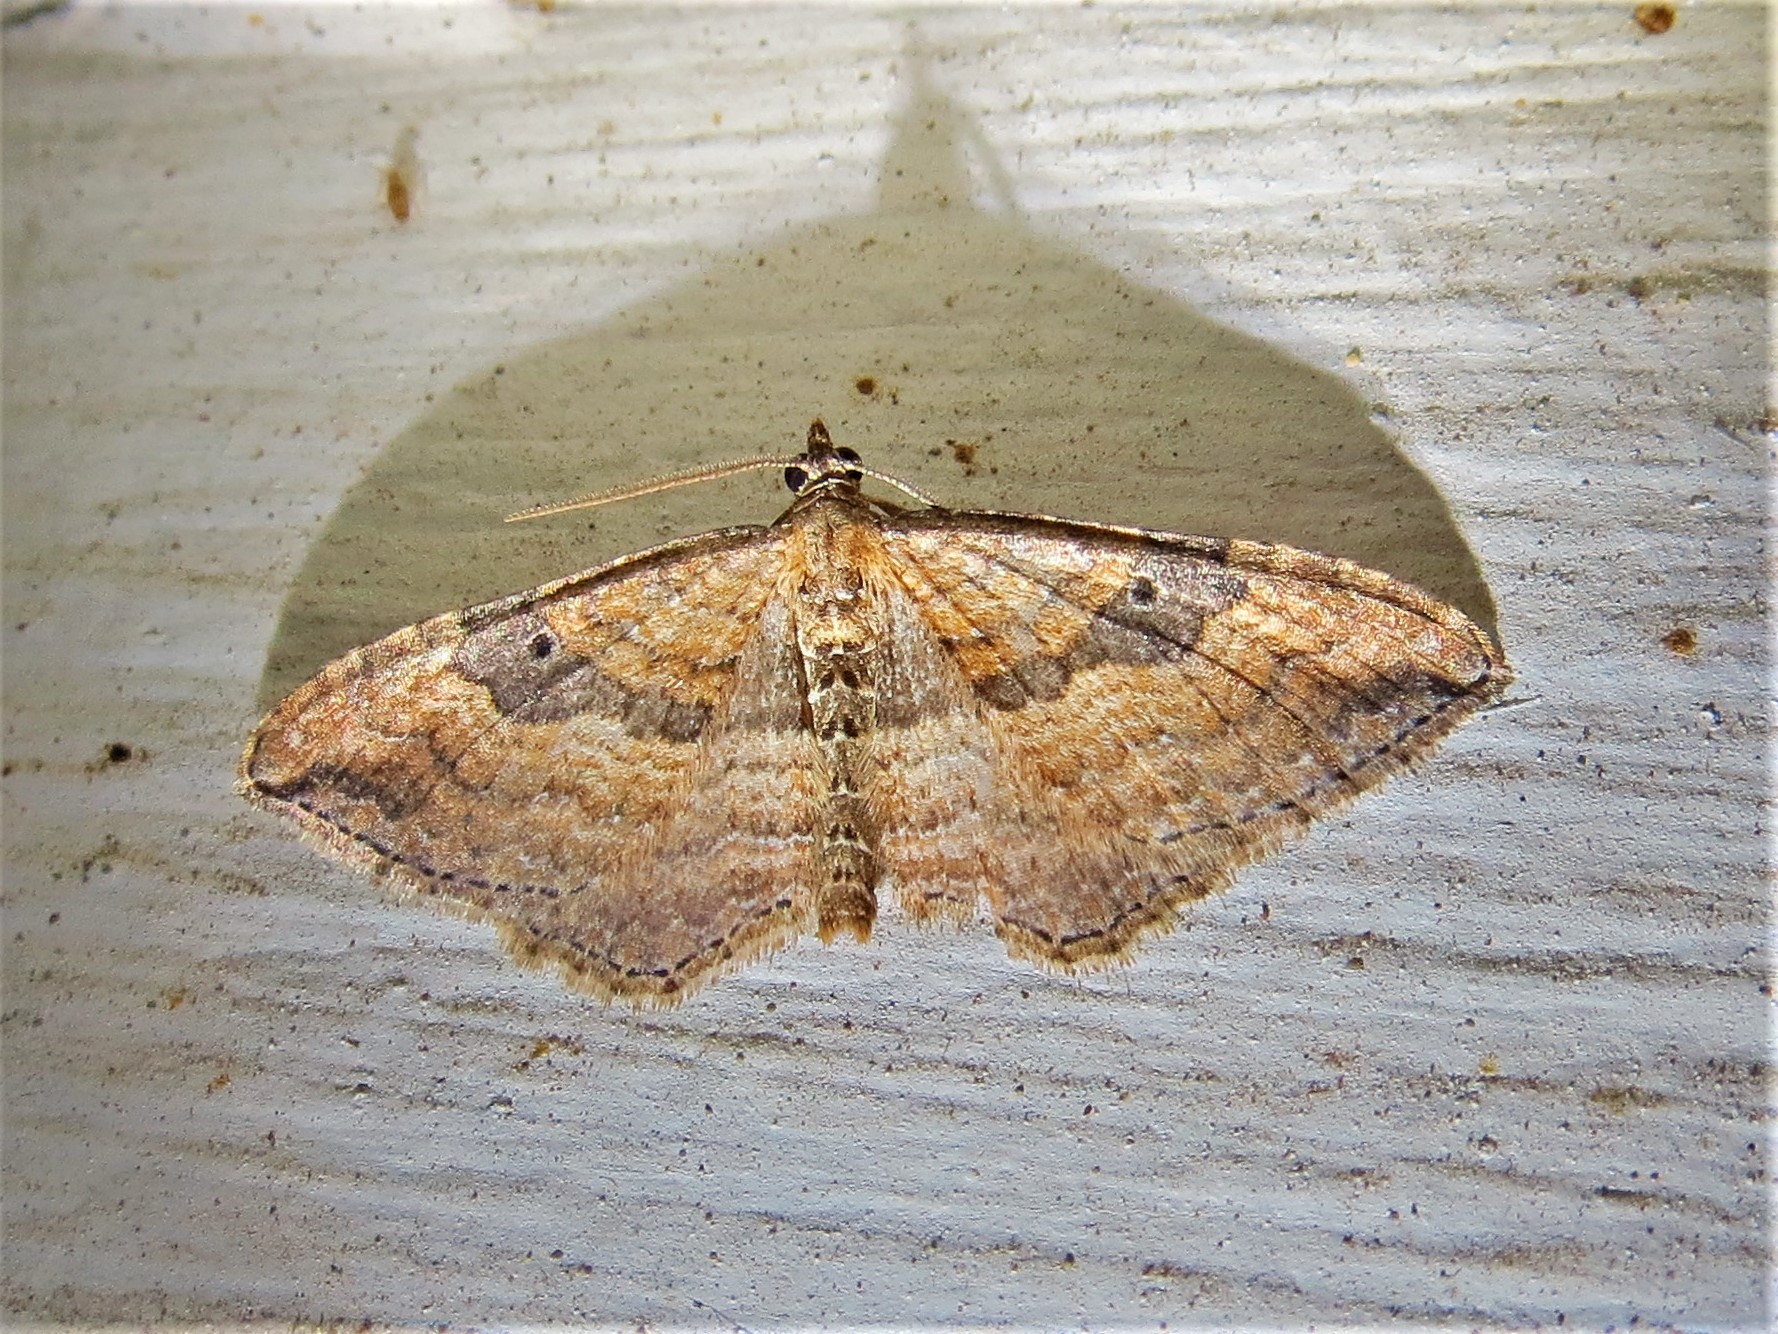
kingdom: Animalia
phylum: Arthropoda
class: Insecta
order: Lepidoptera
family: Geometridae
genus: Orthonama
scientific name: Orthonama obstipata
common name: The gem
